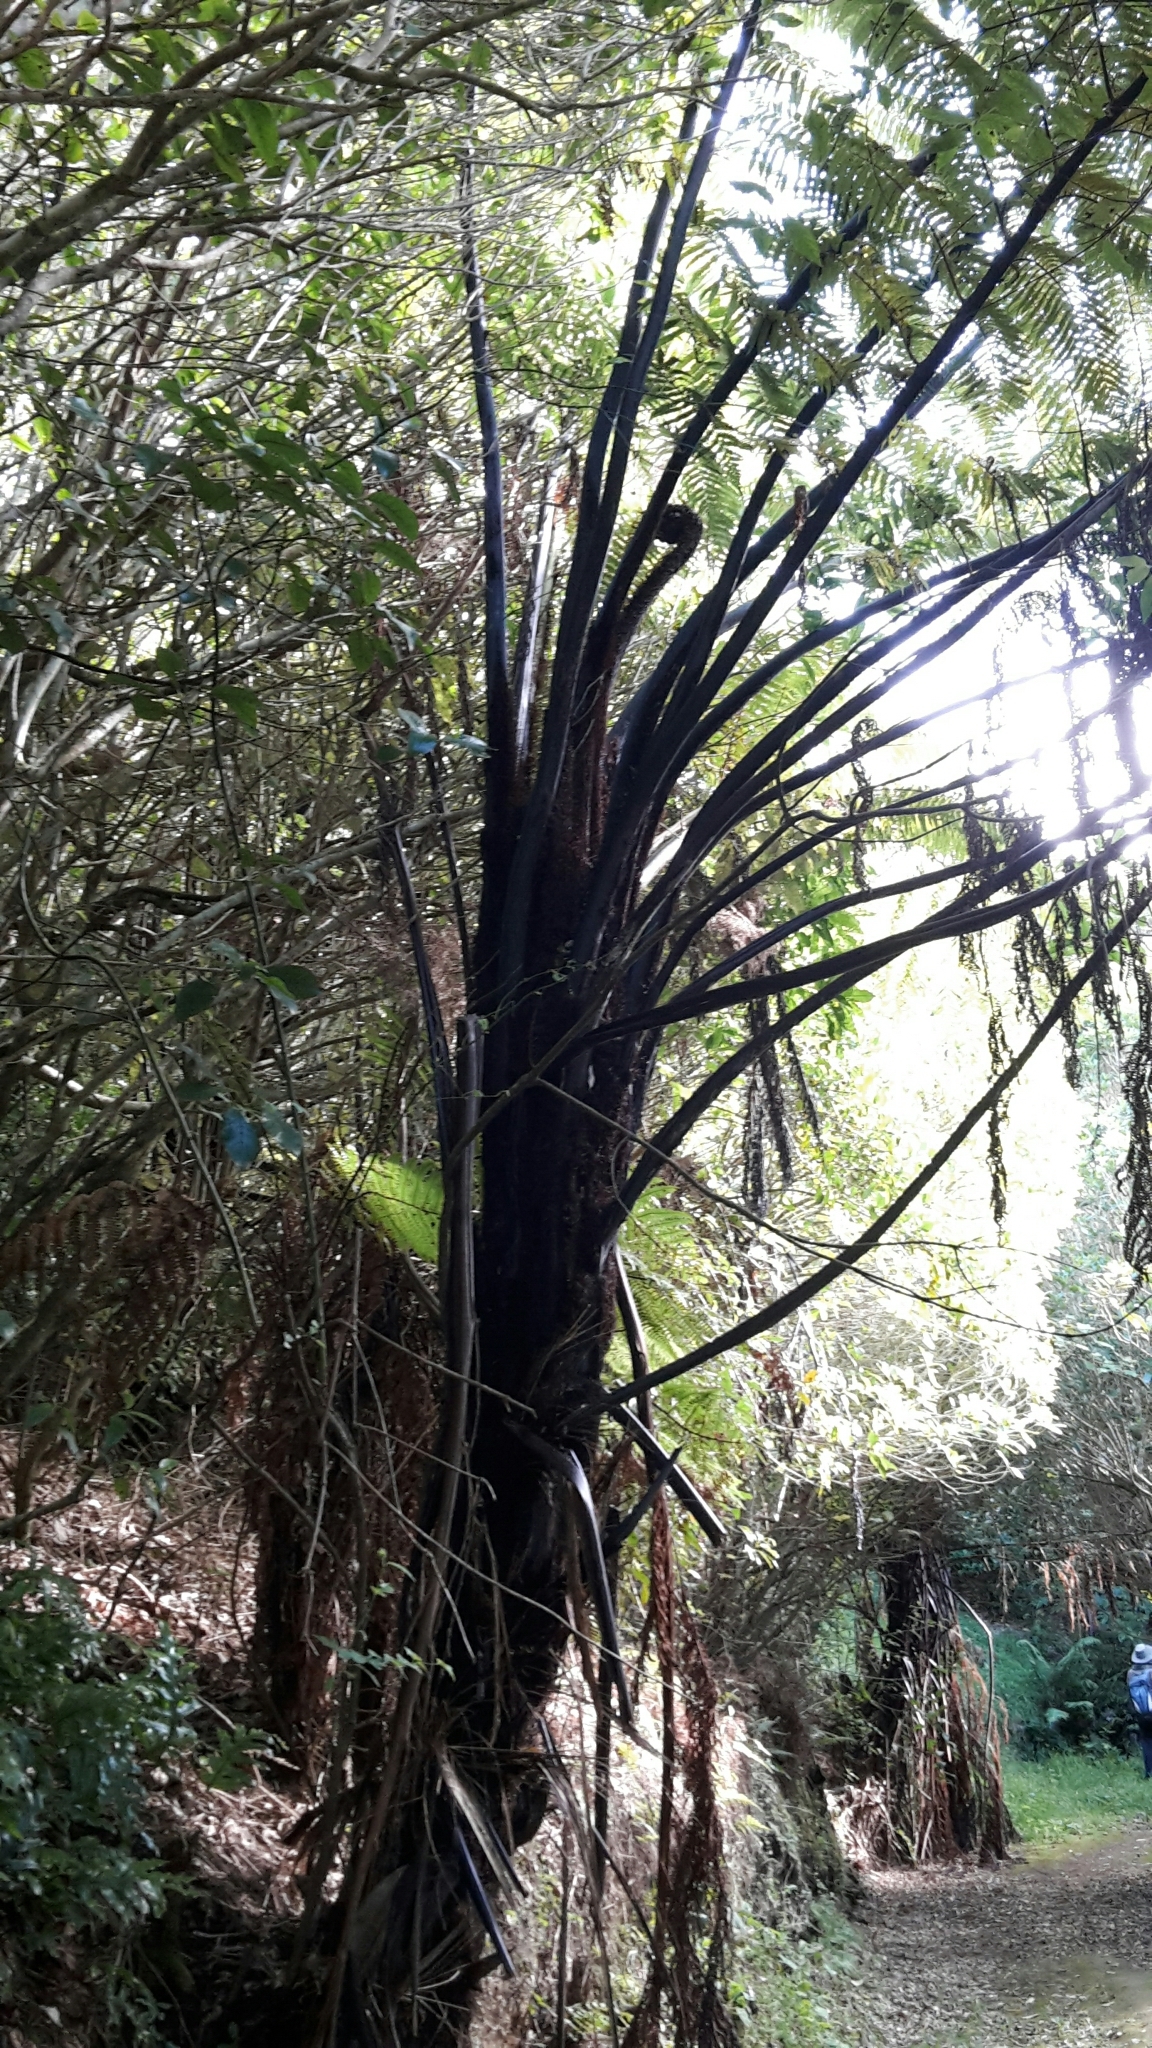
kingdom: Plantae
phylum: Tracheophyta
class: Polypodiopsida
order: Cyatheales
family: Cyatheaceae
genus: Sphaeropteris
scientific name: Sphaeropteris medullaris
